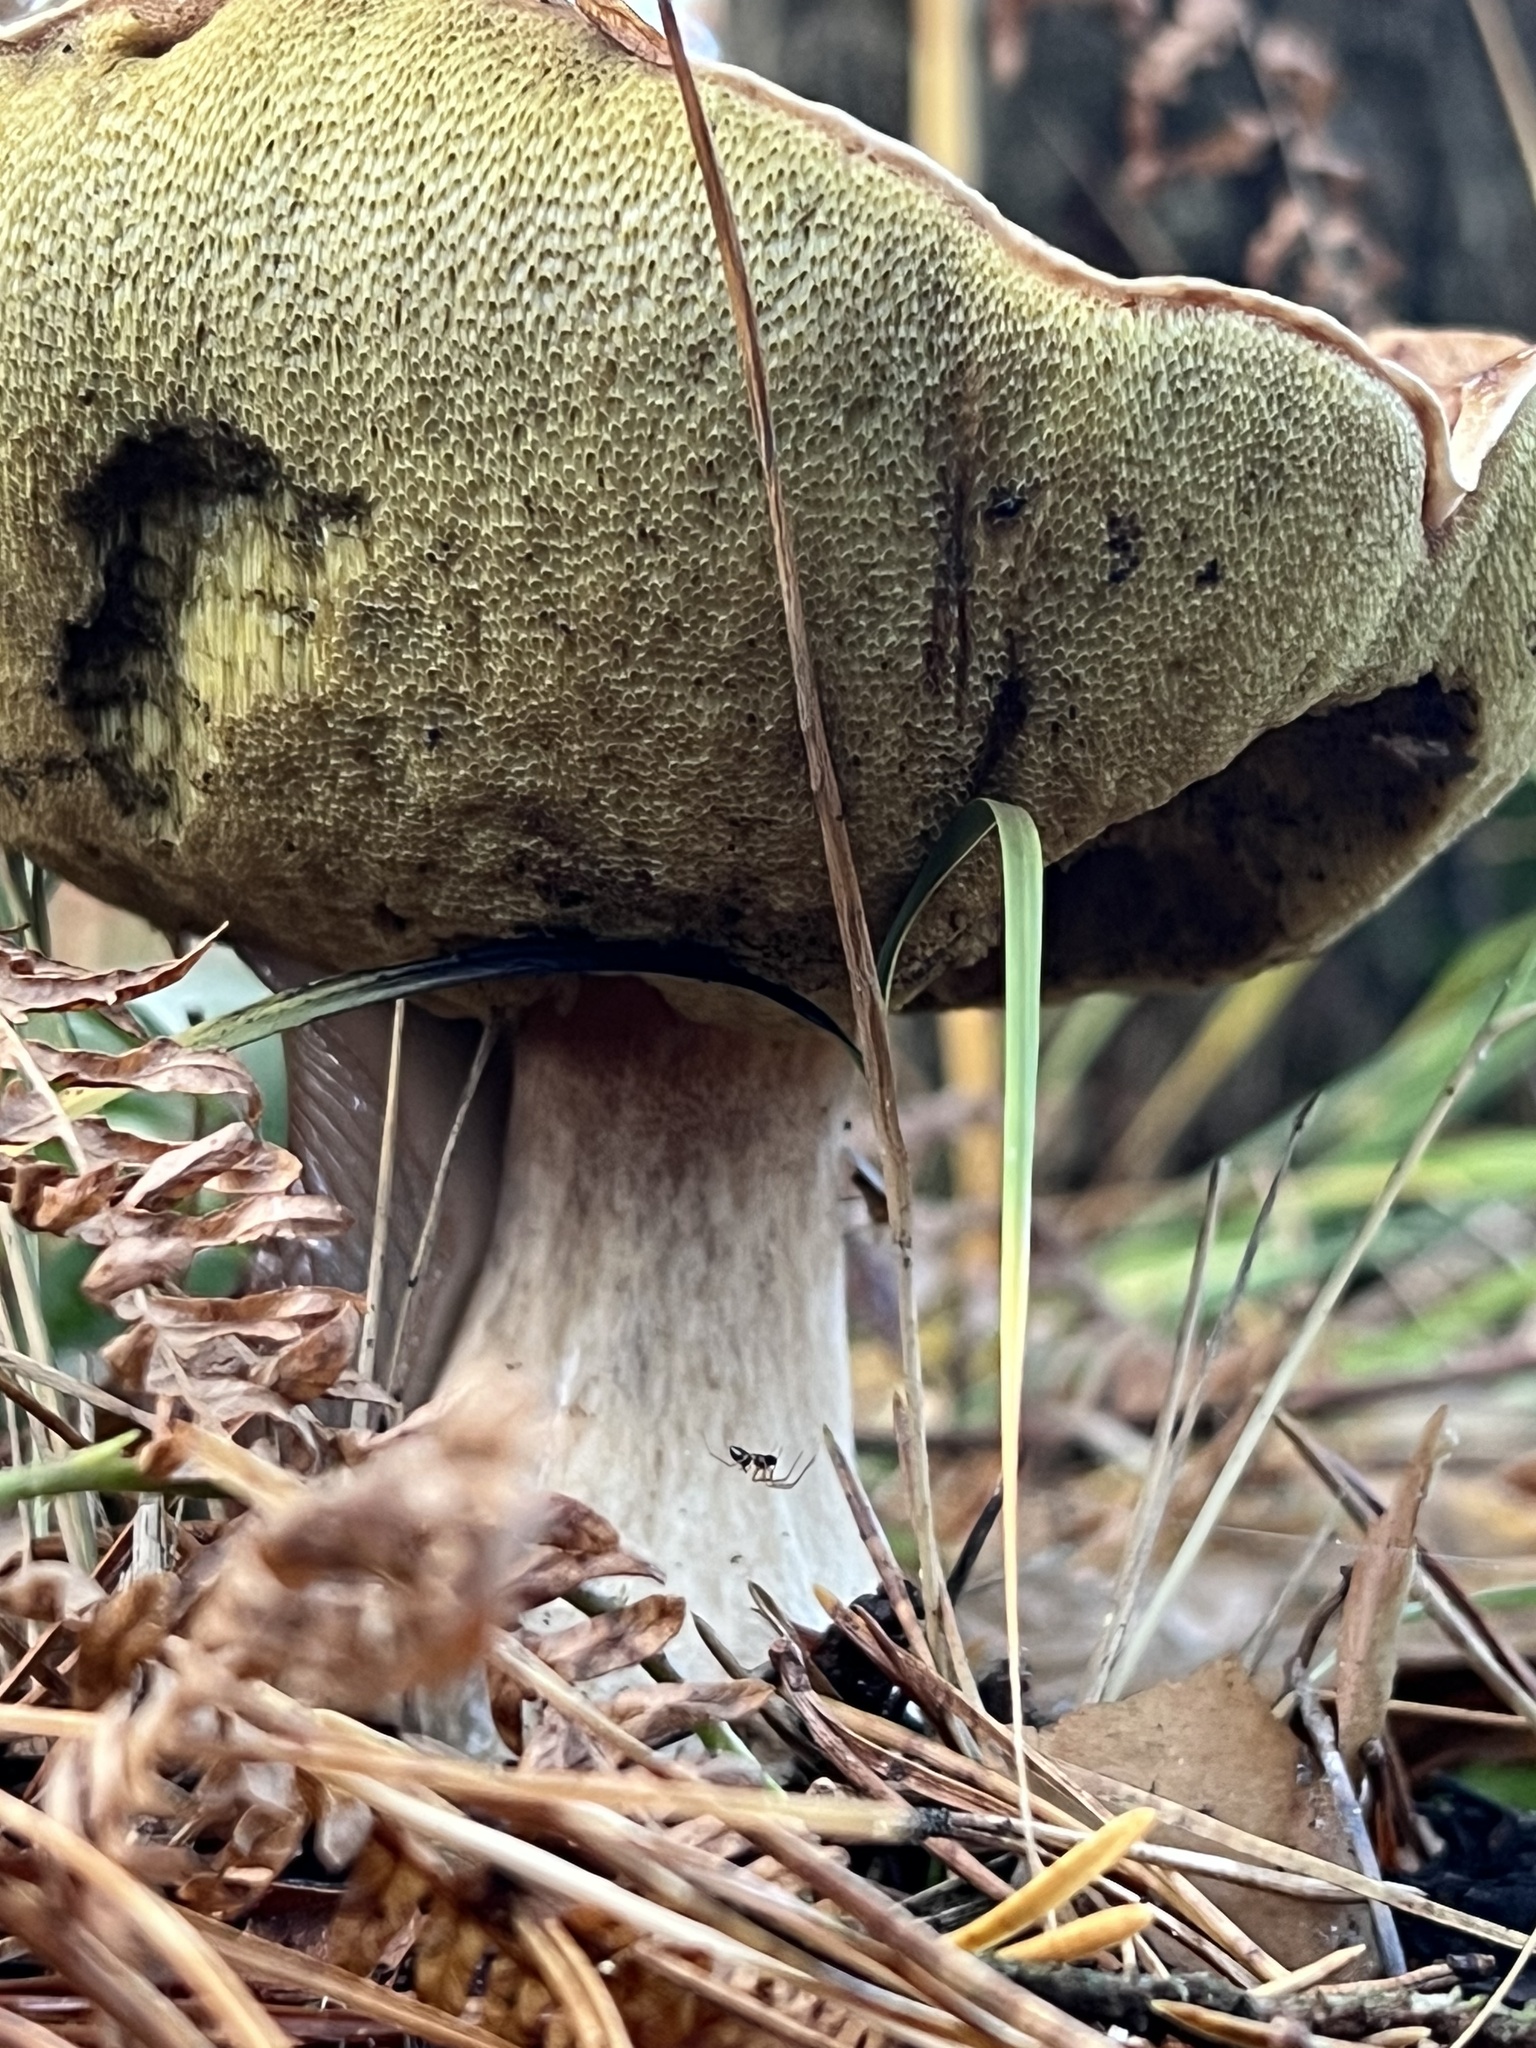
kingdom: Fungi
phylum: Basidiomycota
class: Agaricomycetes
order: Boletales
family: Boletaceae
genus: Boletus
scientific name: Boletus edulis
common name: Cep
